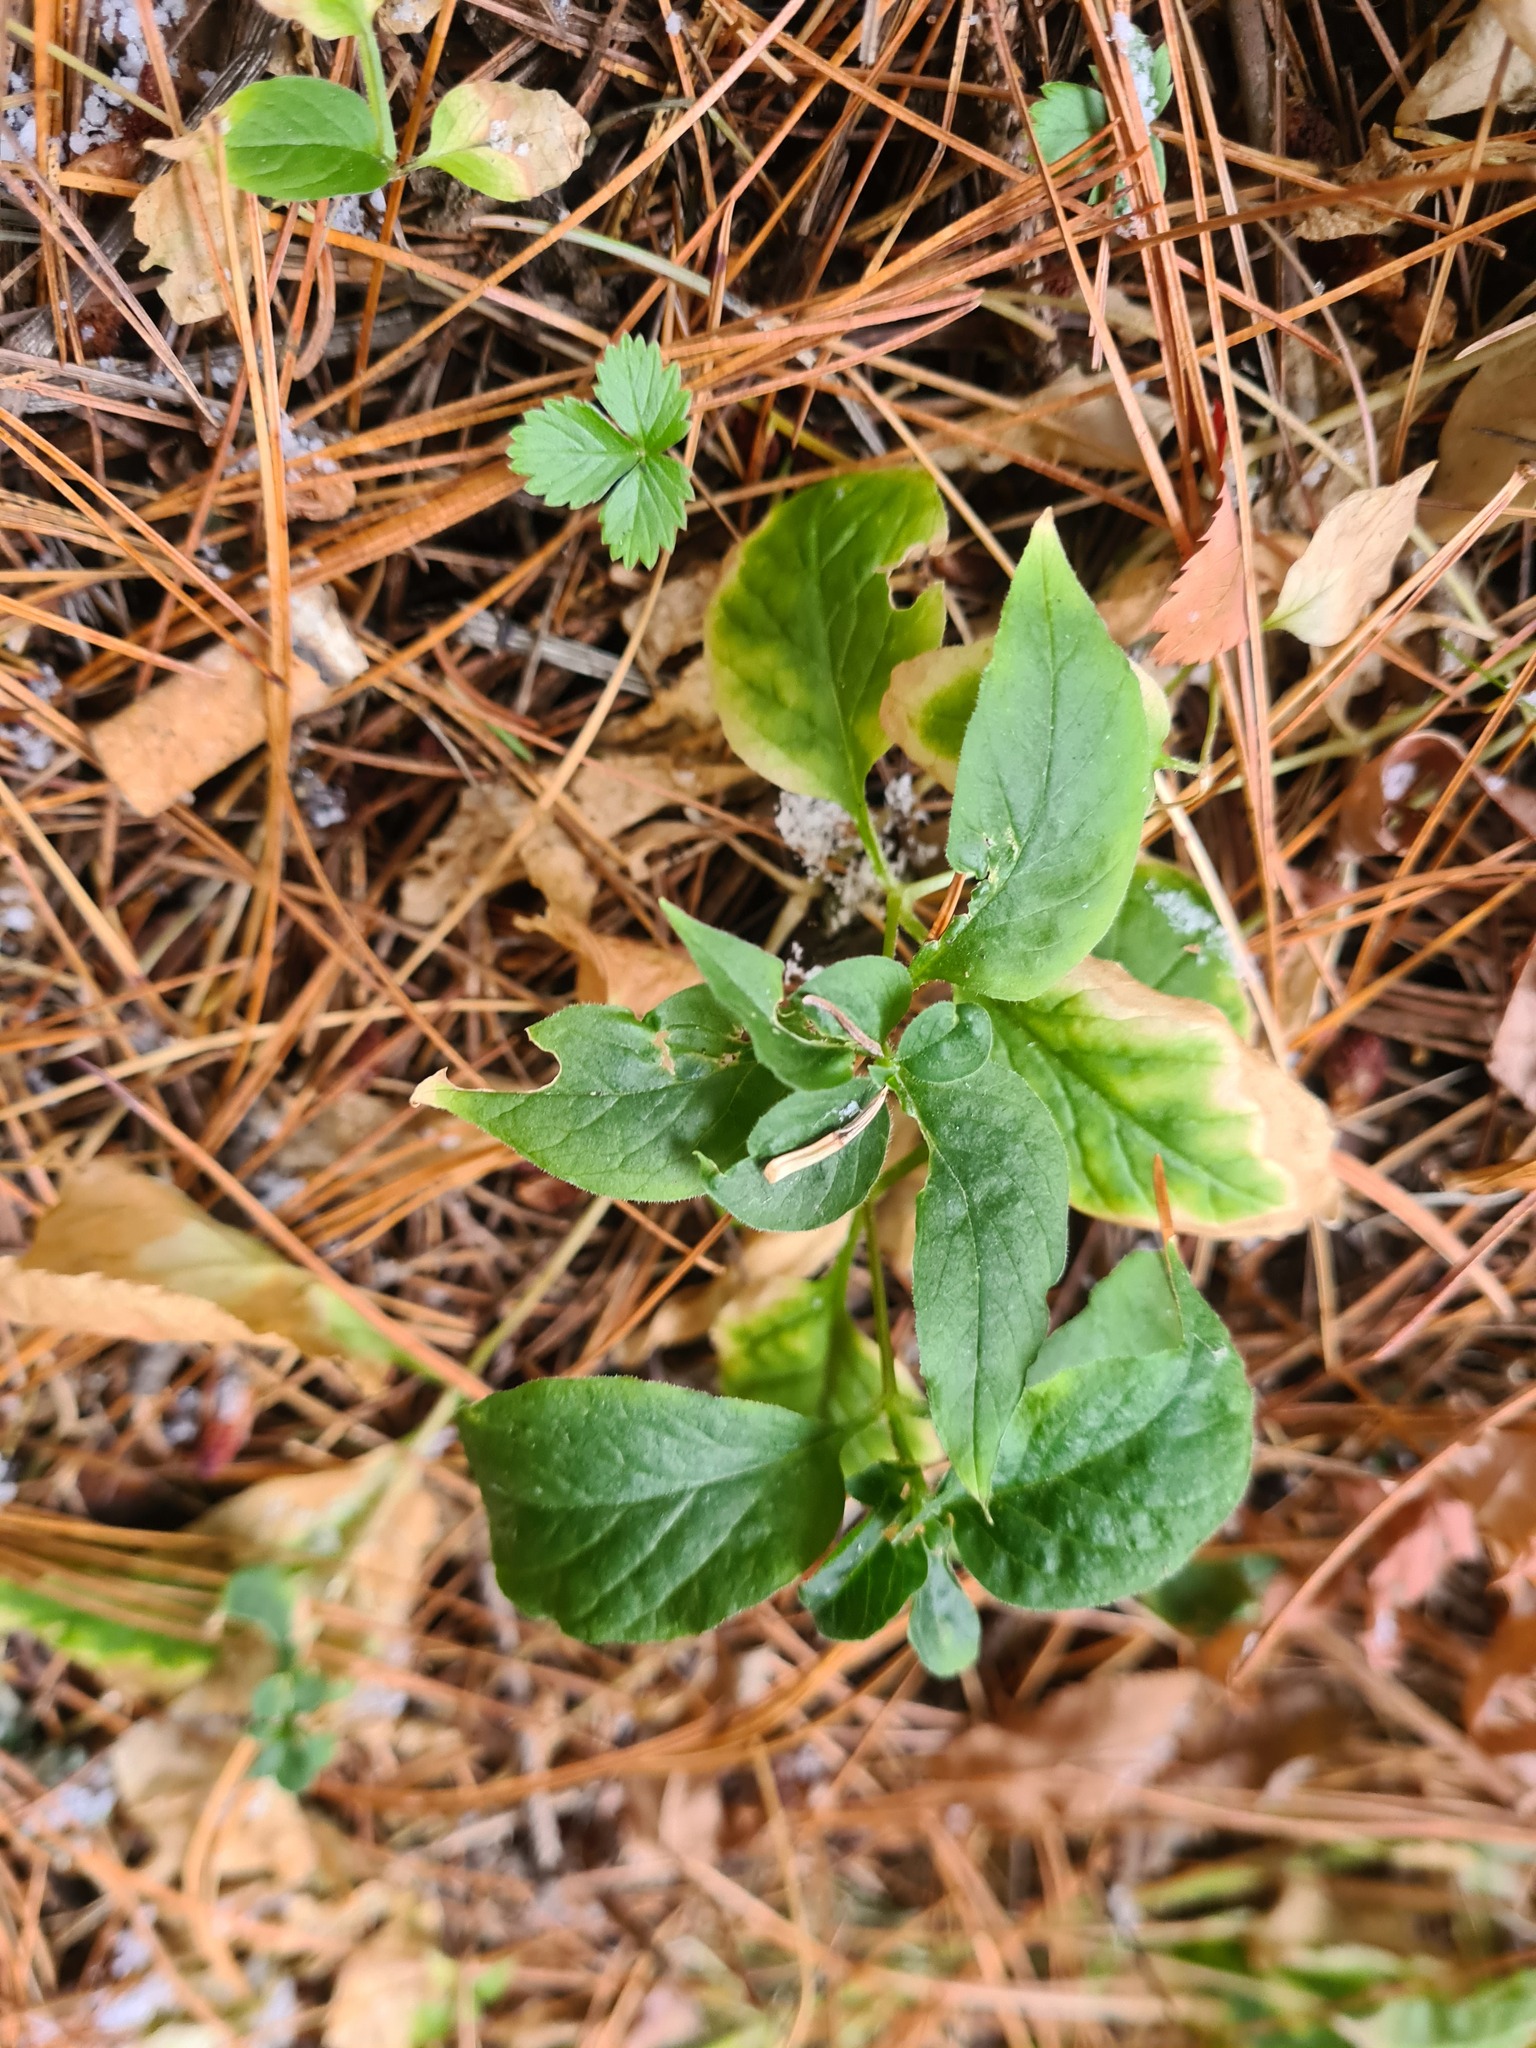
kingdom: Plantae
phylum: Tracheophyta
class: Magnoliopsida
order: Caryophyllales
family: Caryophyllaceae
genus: Stellaria
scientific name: Stellaria bungeana
